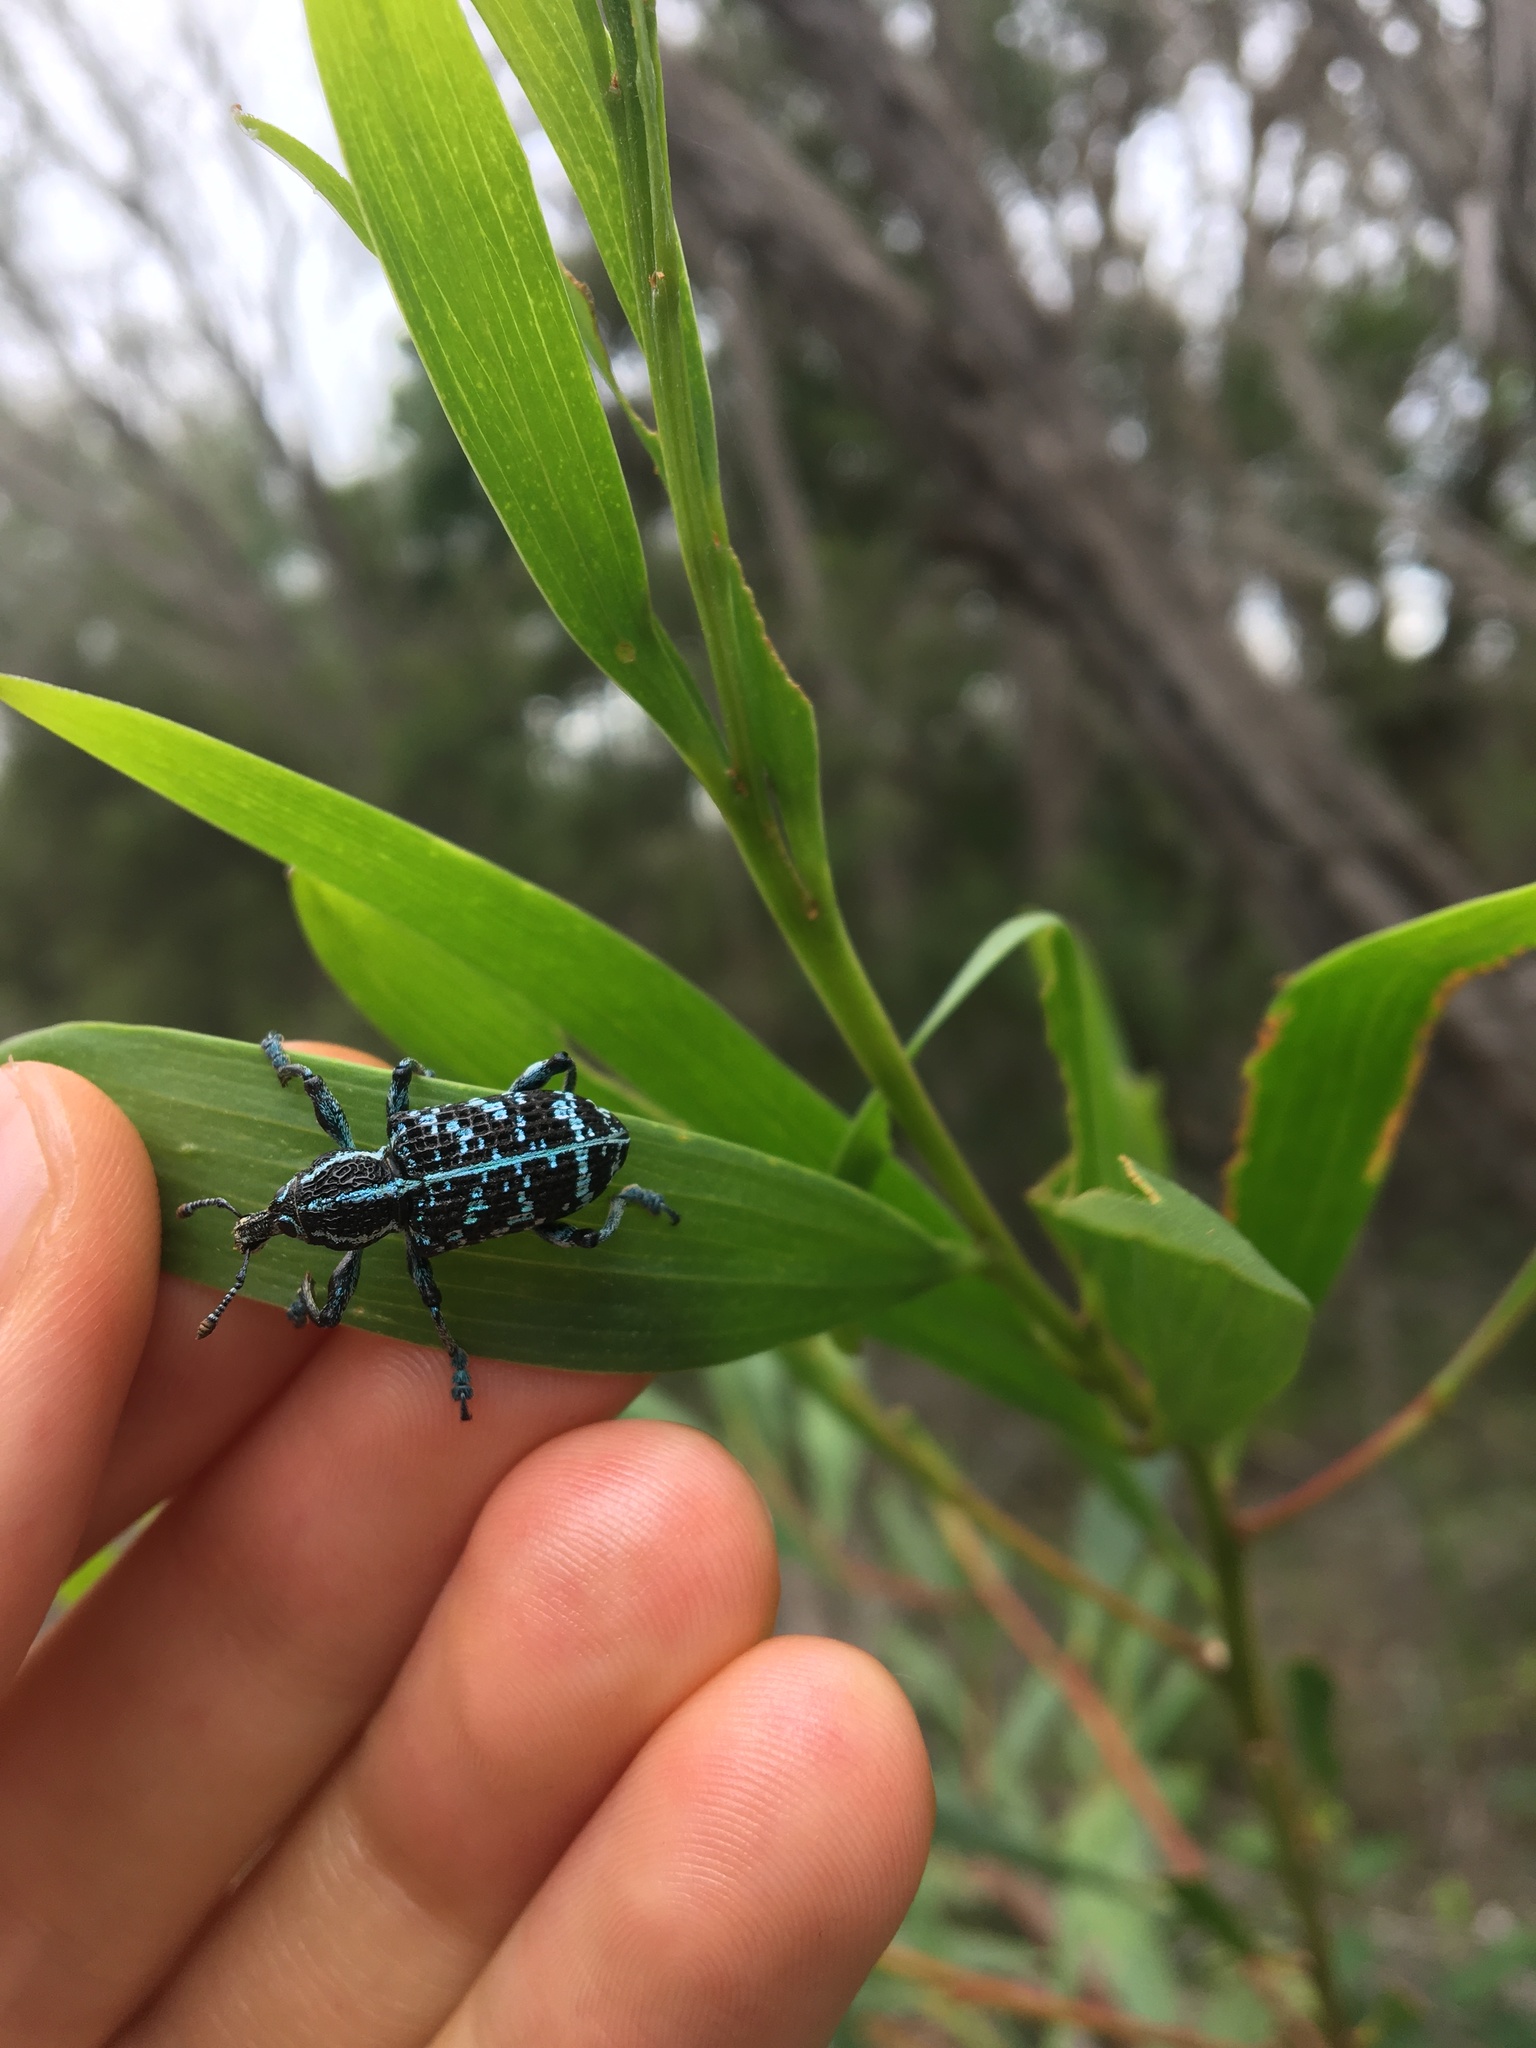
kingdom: Animalia
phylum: Arthropoda
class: Insecta
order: Coleoptera
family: Curculionidae
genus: Chrysolopus
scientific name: Chrysolopus spectabilis
